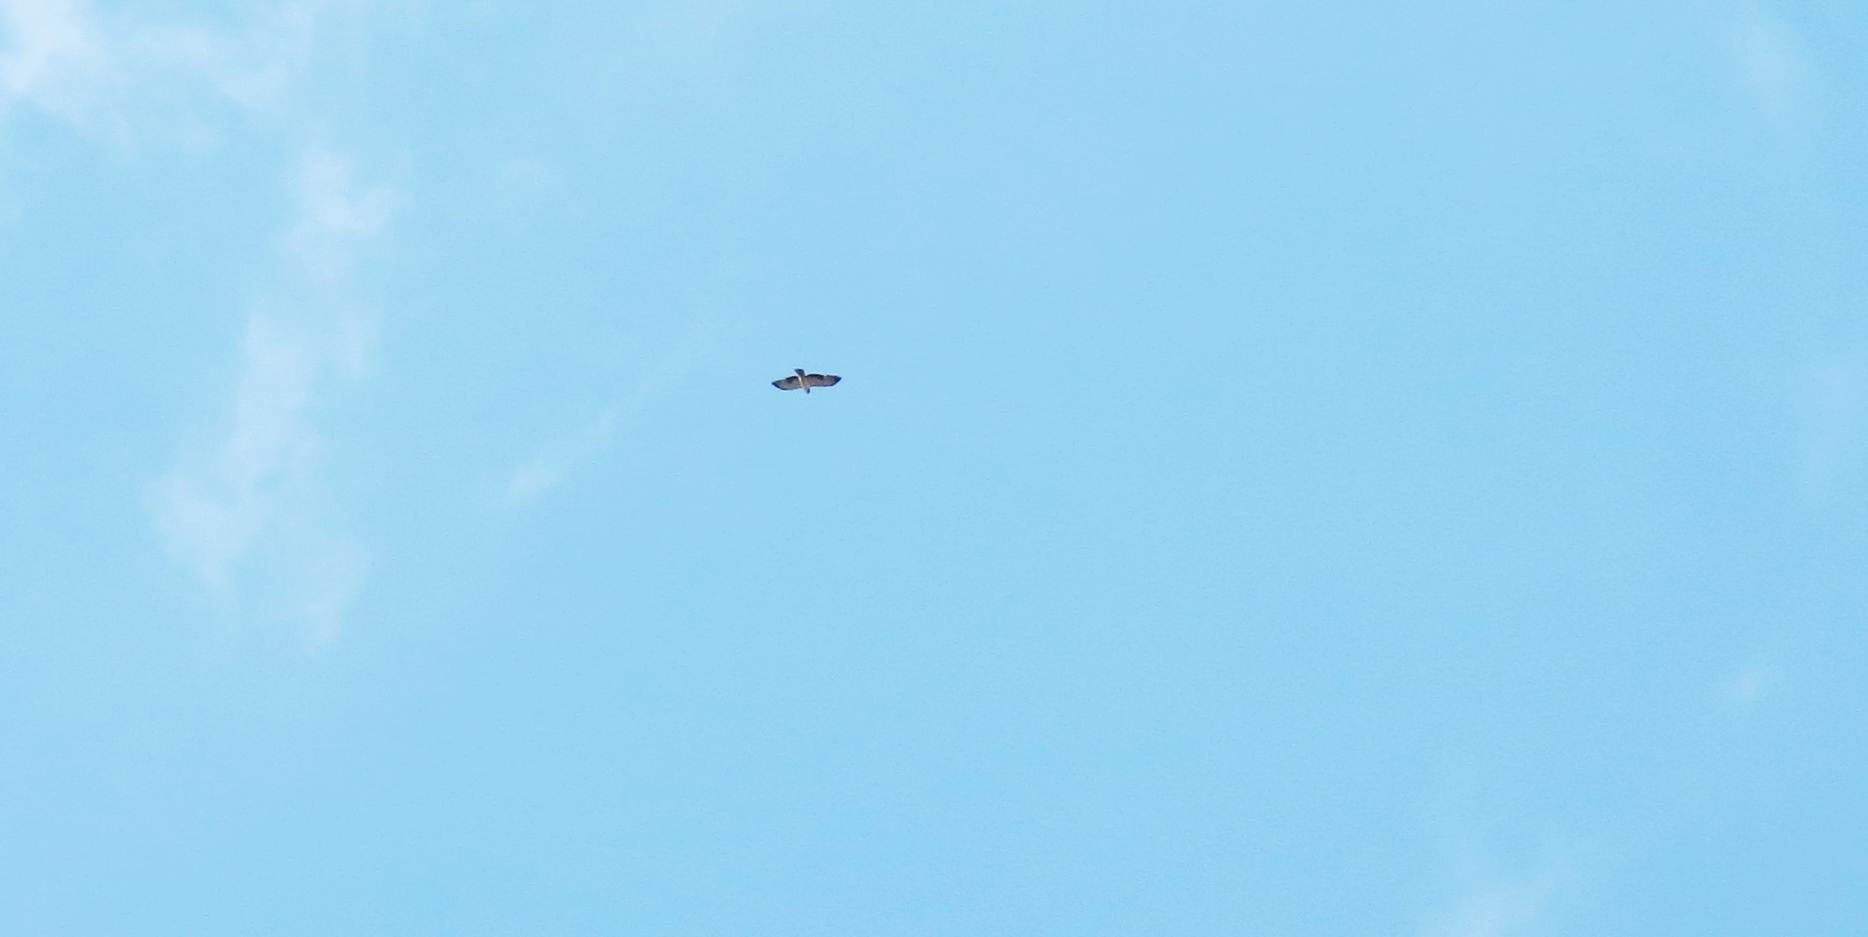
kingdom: Animalia
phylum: Chordata
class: Aves
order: Accipitriformes
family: Accipitridae
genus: Buteo
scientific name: Buteo brachyurus
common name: Short-tailed hawk
